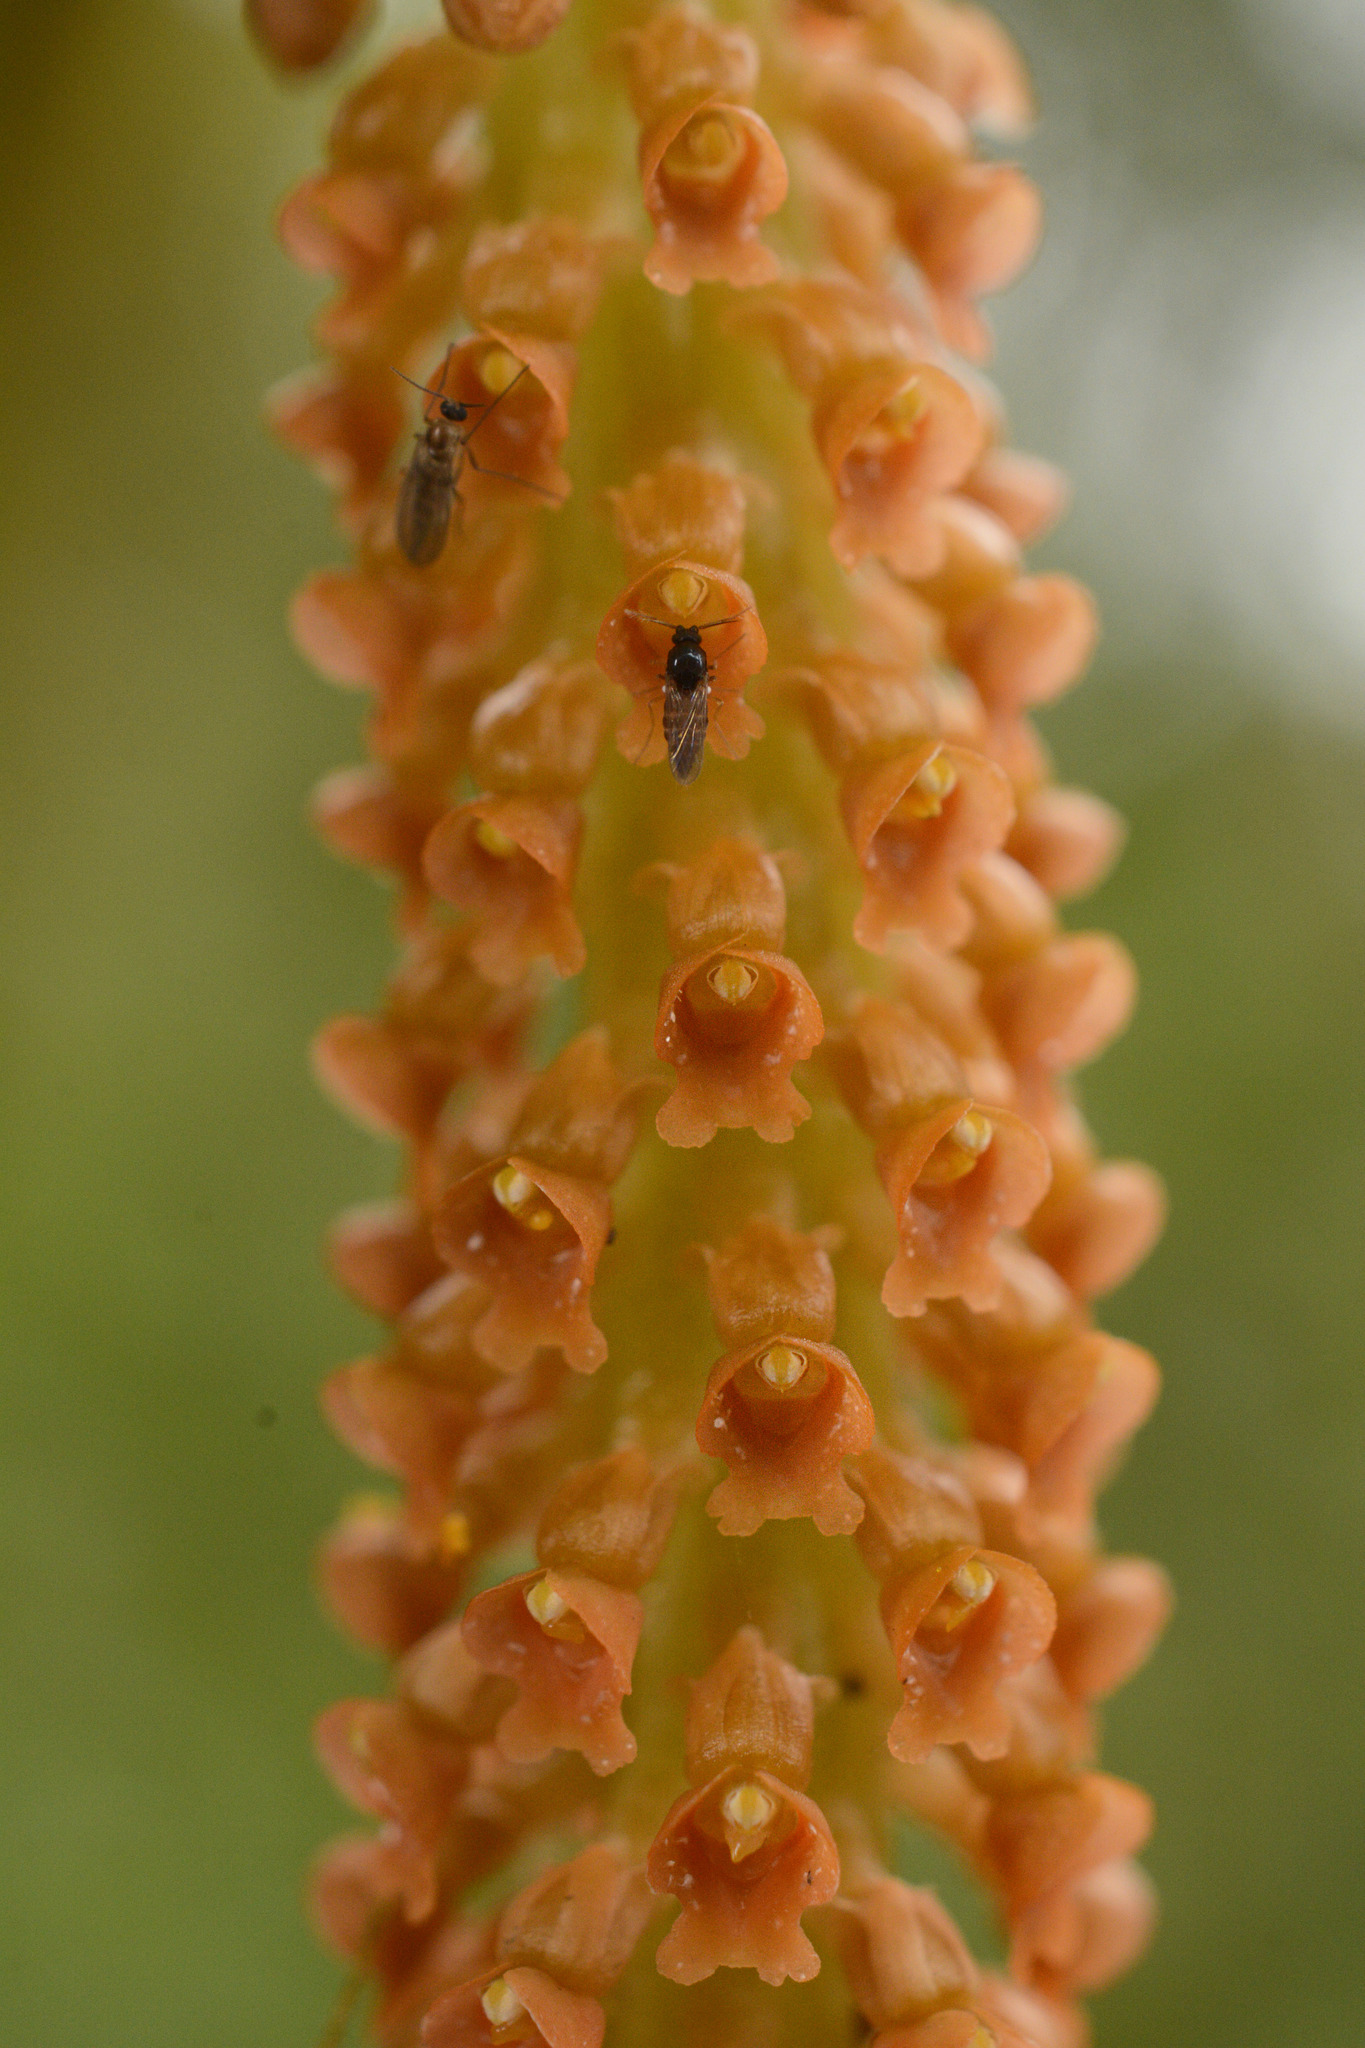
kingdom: Plantae
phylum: Tracheophyta
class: Liliopsida
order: Asparagales
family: Orchidaceae
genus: Oberonia
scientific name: Oberonia josephi
